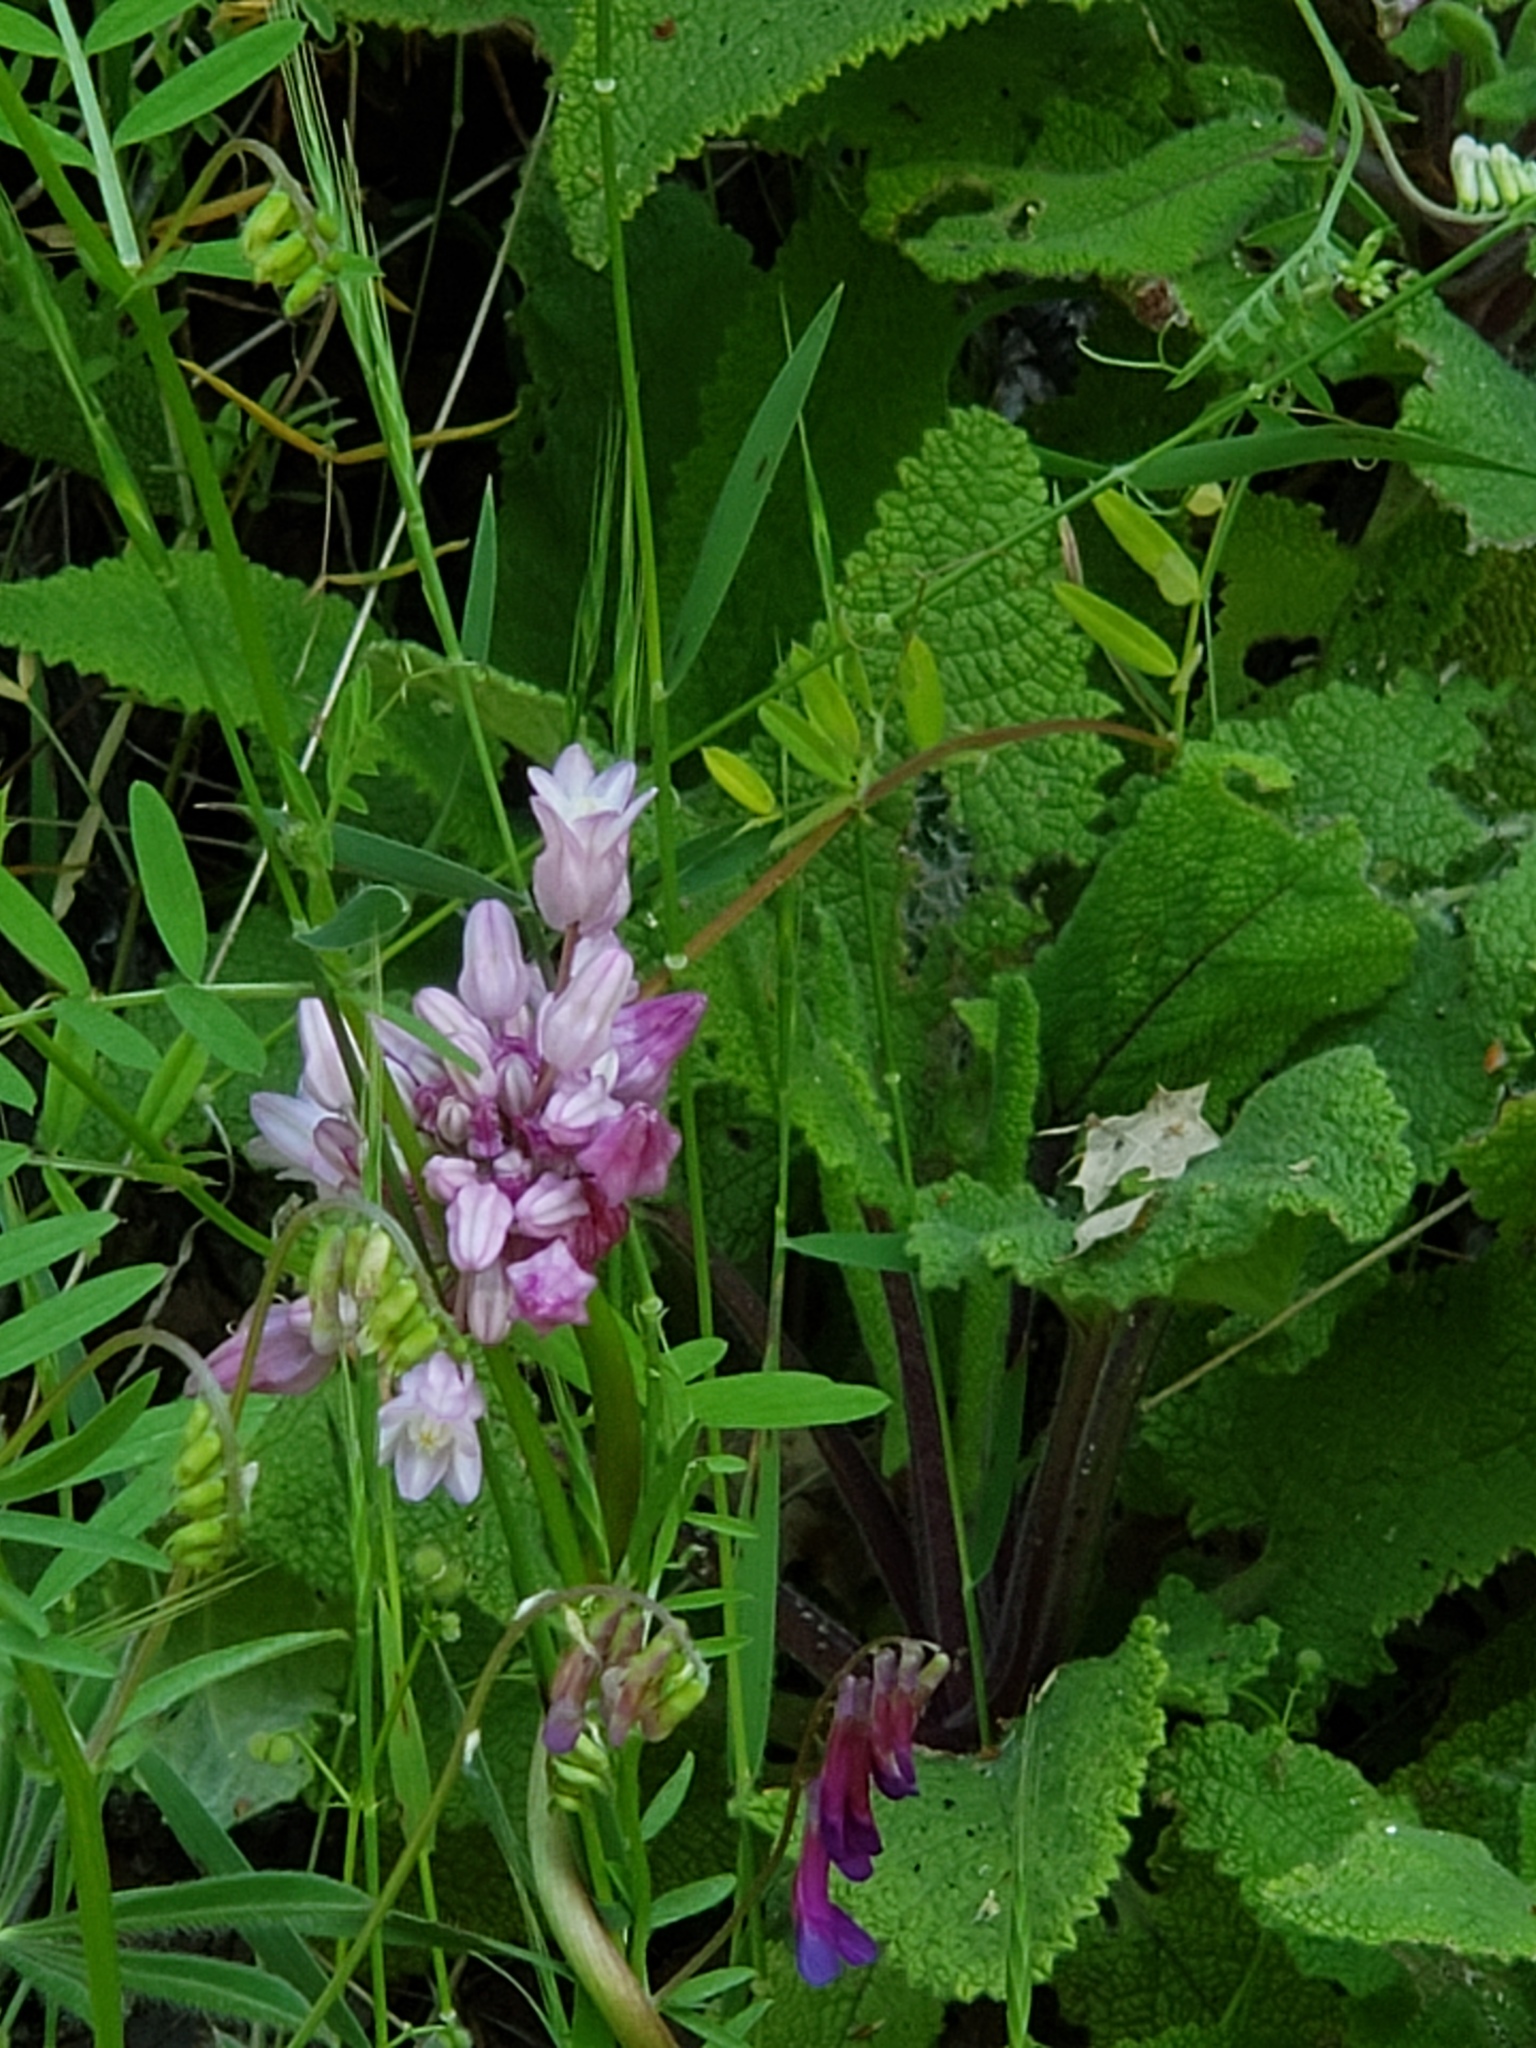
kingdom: Plantae
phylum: Tracheophyta
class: Liliopsida
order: Asparagales
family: Asparagaceae
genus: Dichelostemma
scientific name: Dichelostemma volubile
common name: Trining brodiaea
